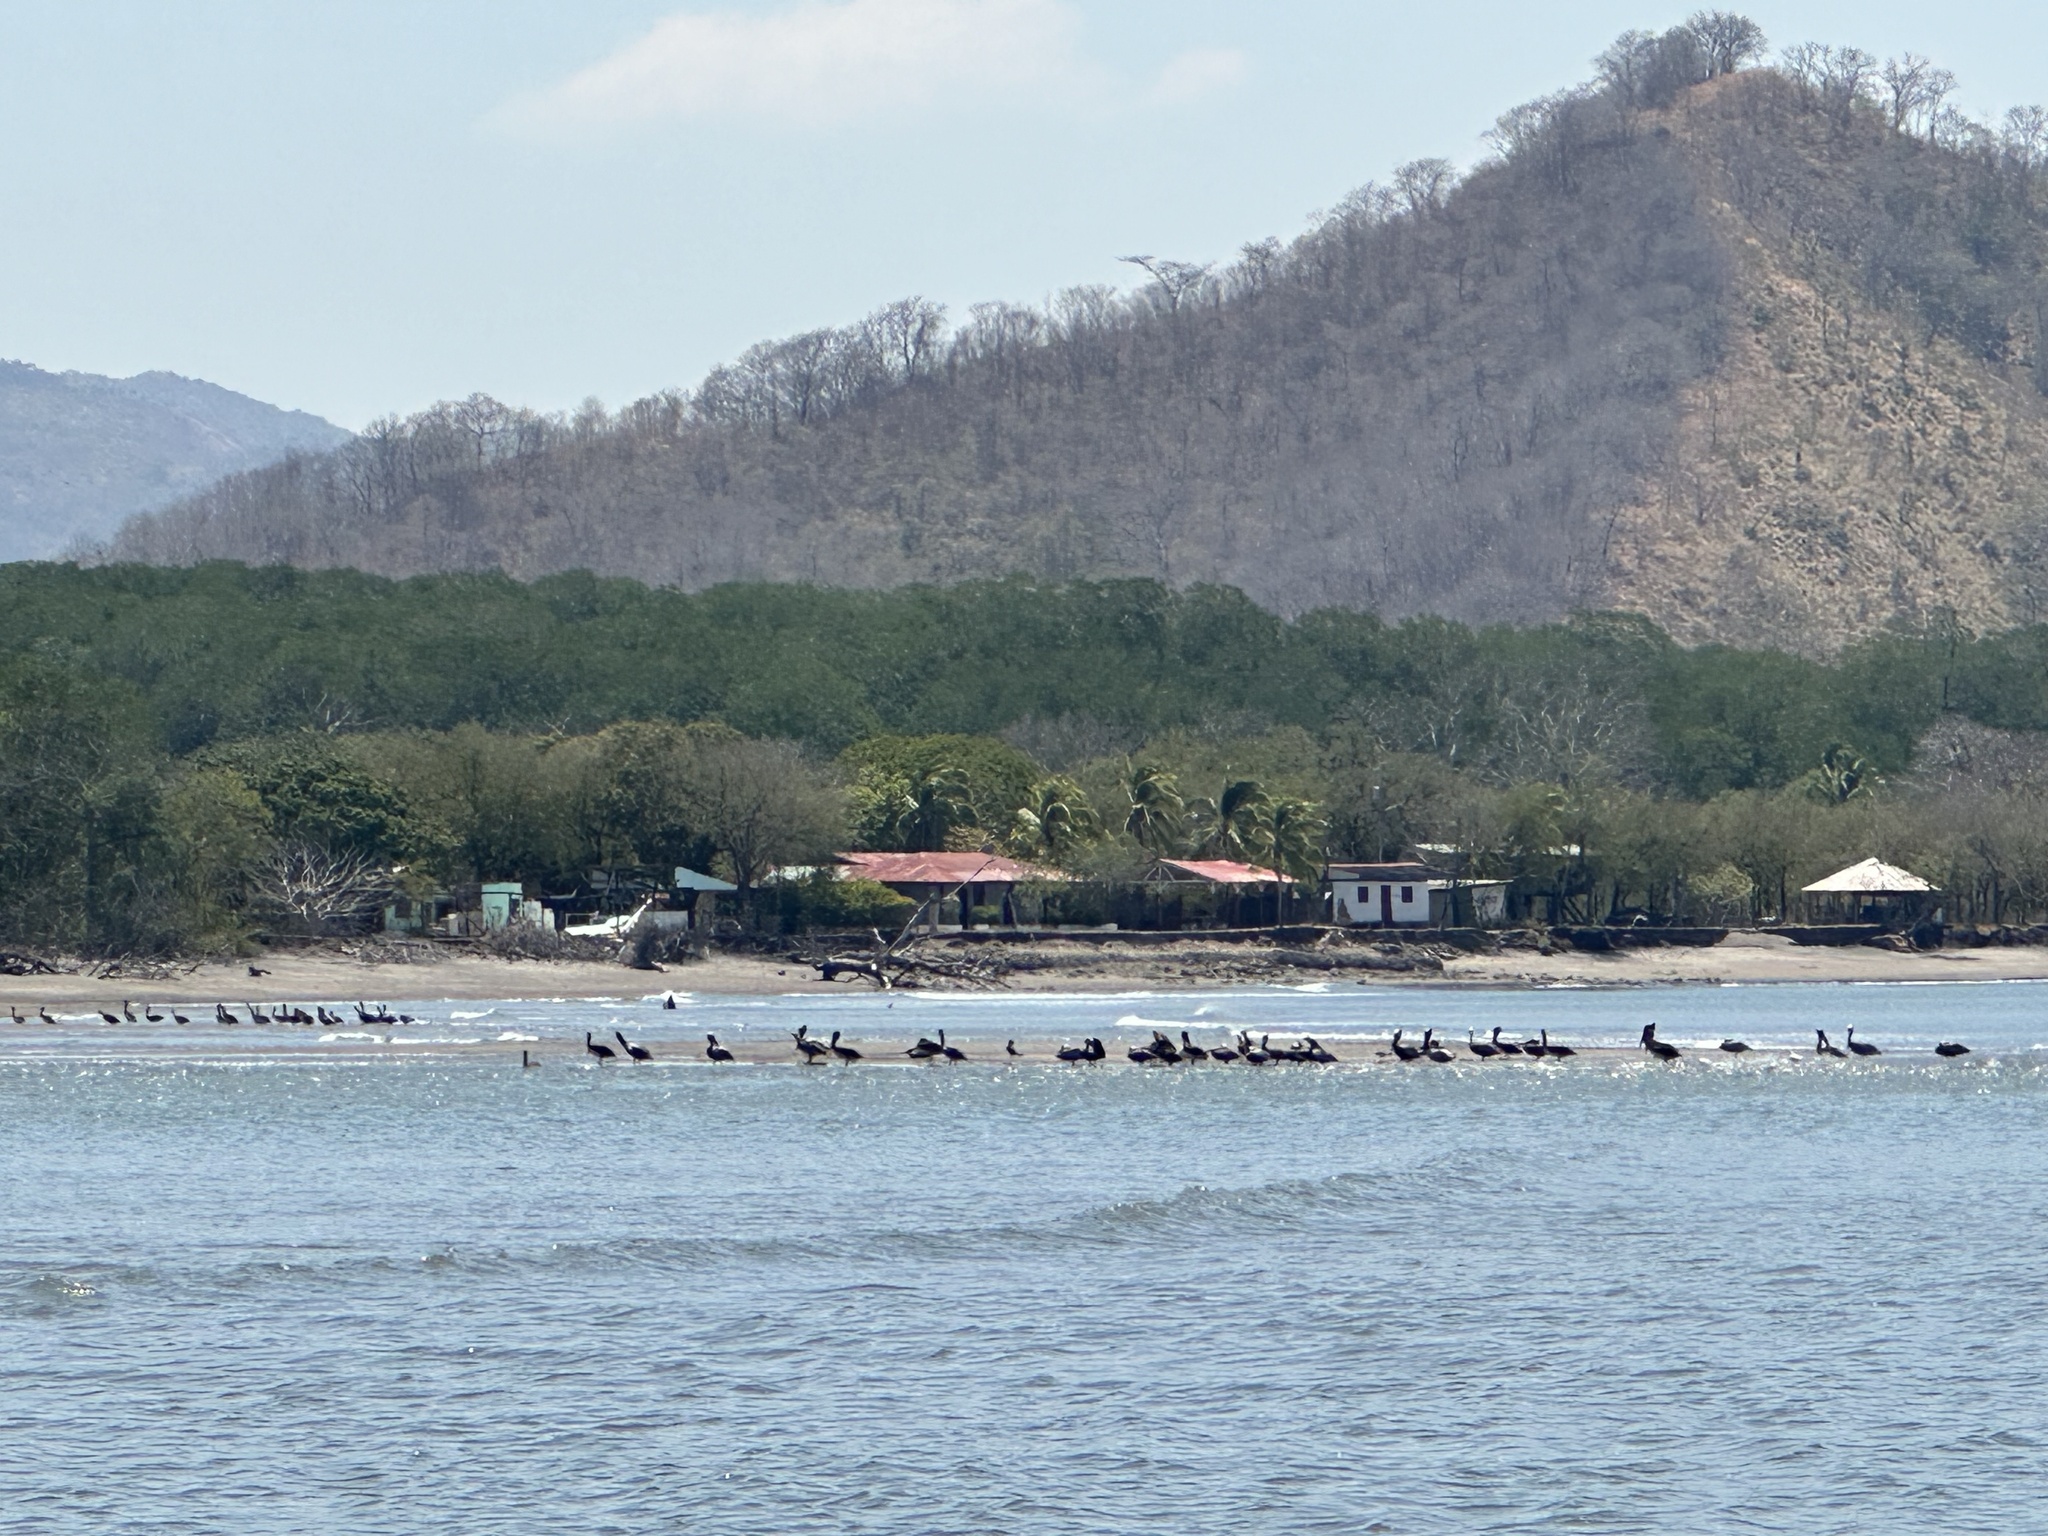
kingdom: Animalia
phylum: Chordata
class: Aves
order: Pelecaniformes
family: Pelecanidae
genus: Pelecanus
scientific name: Pelecanus occidentalis
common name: Brown pelican
